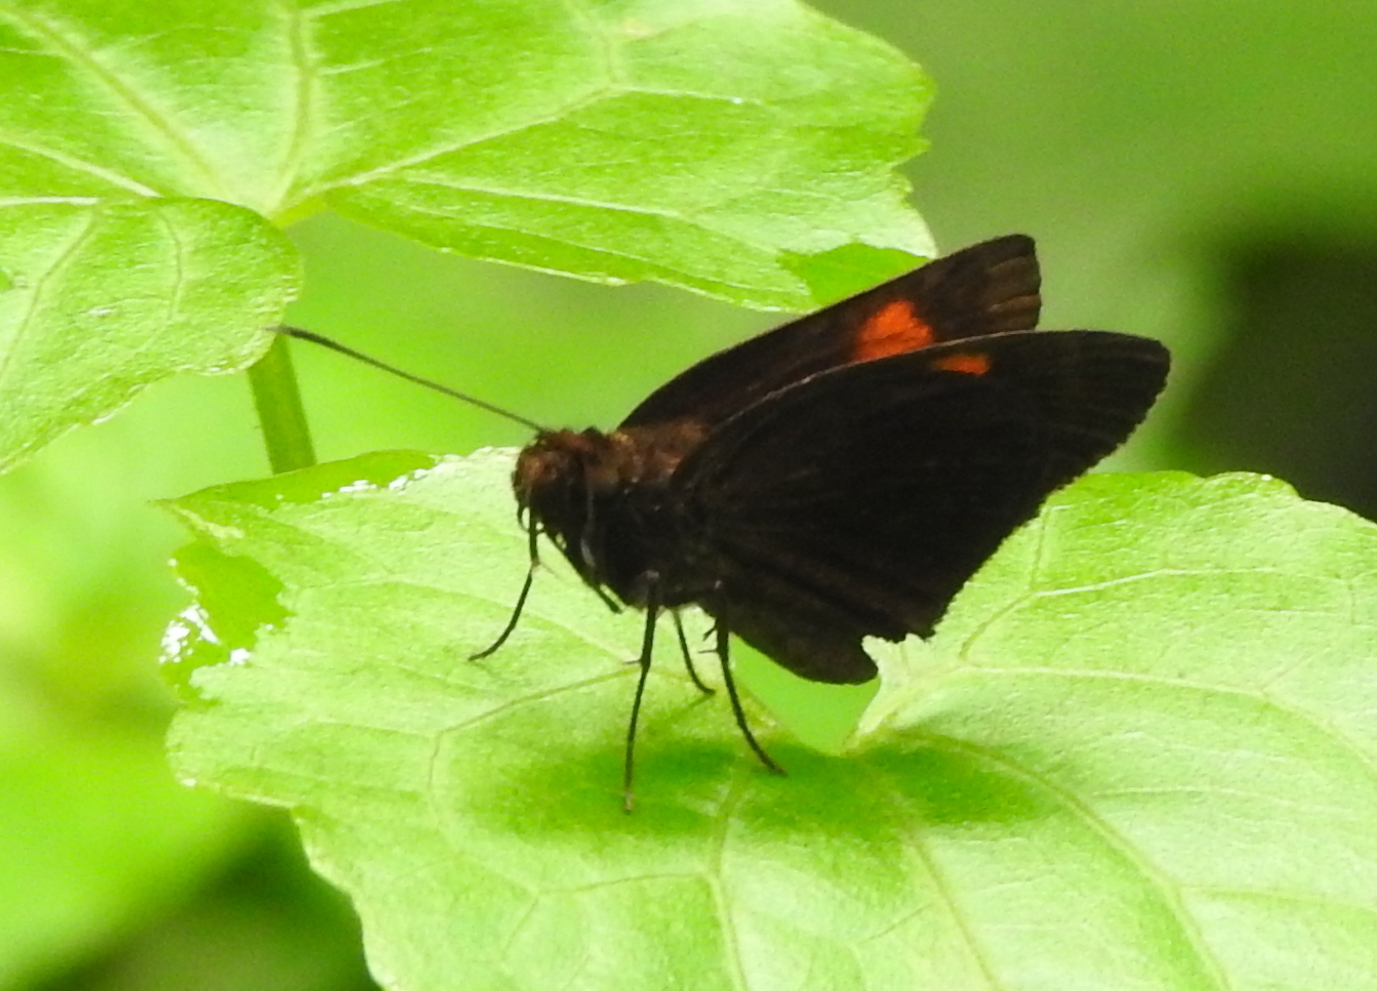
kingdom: Animalia
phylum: Arthropoda
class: Insecta
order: Lepidoptera
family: Hesperiidae
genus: Koruthaialos
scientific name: Koruthaialos rubecula
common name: Narrow-banded velvet bob
